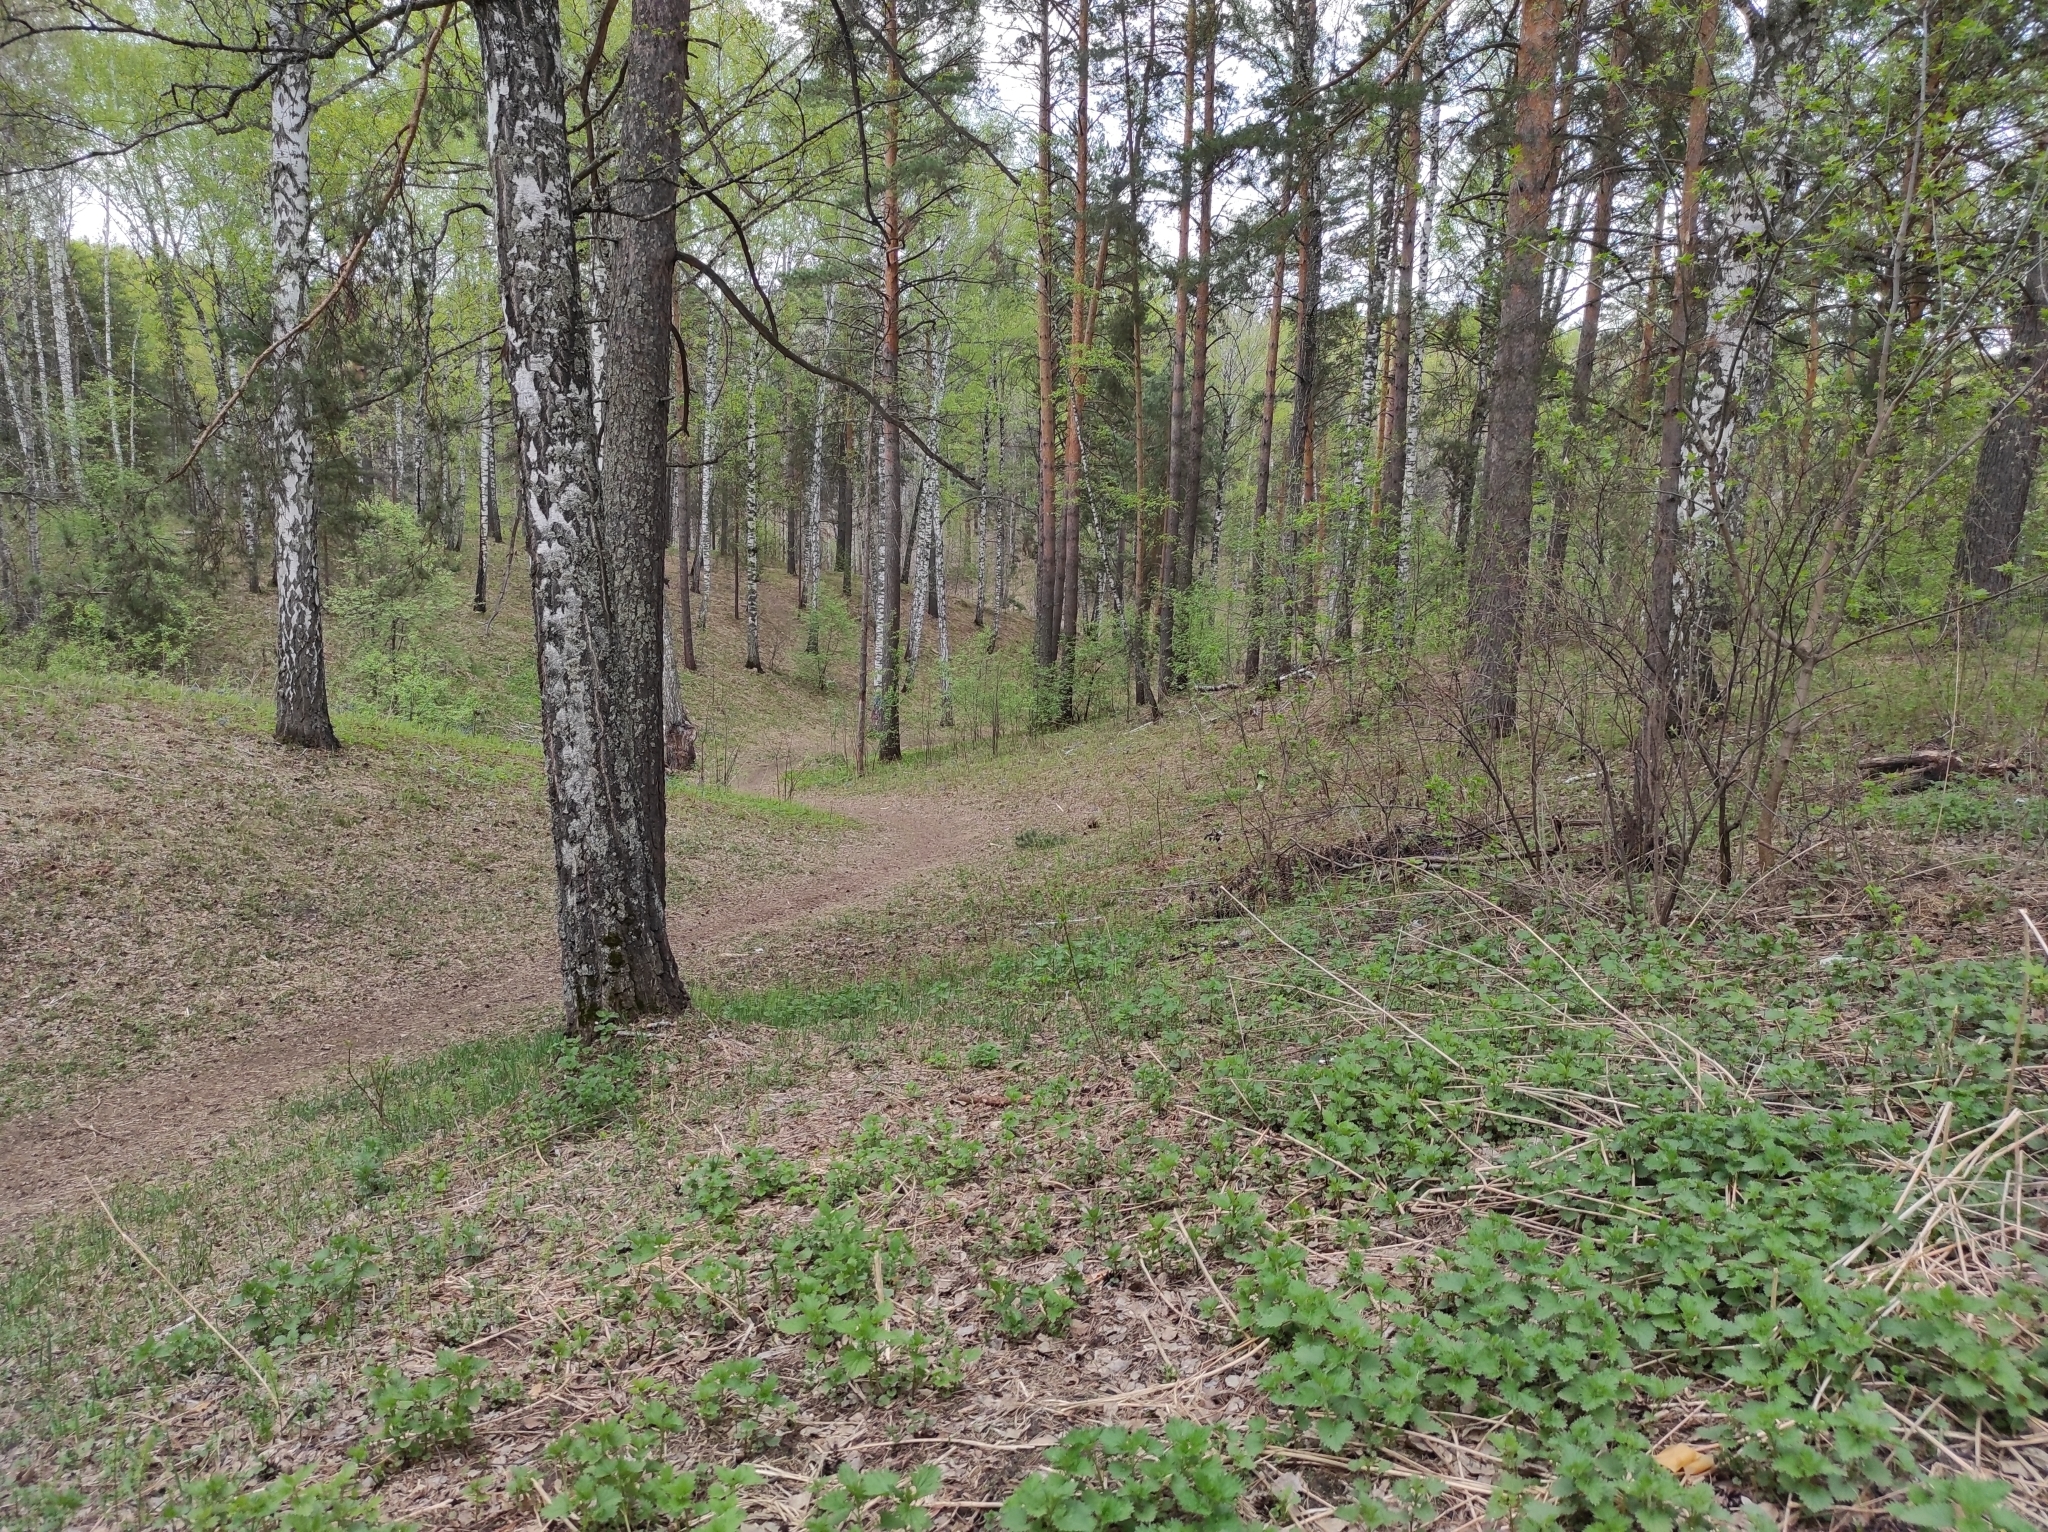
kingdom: Plantae
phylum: Tracheophyta
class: Magnoliopsida
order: Fagales
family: Betulaceae
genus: Betula
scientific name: Betula pendula
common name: Silver birch
